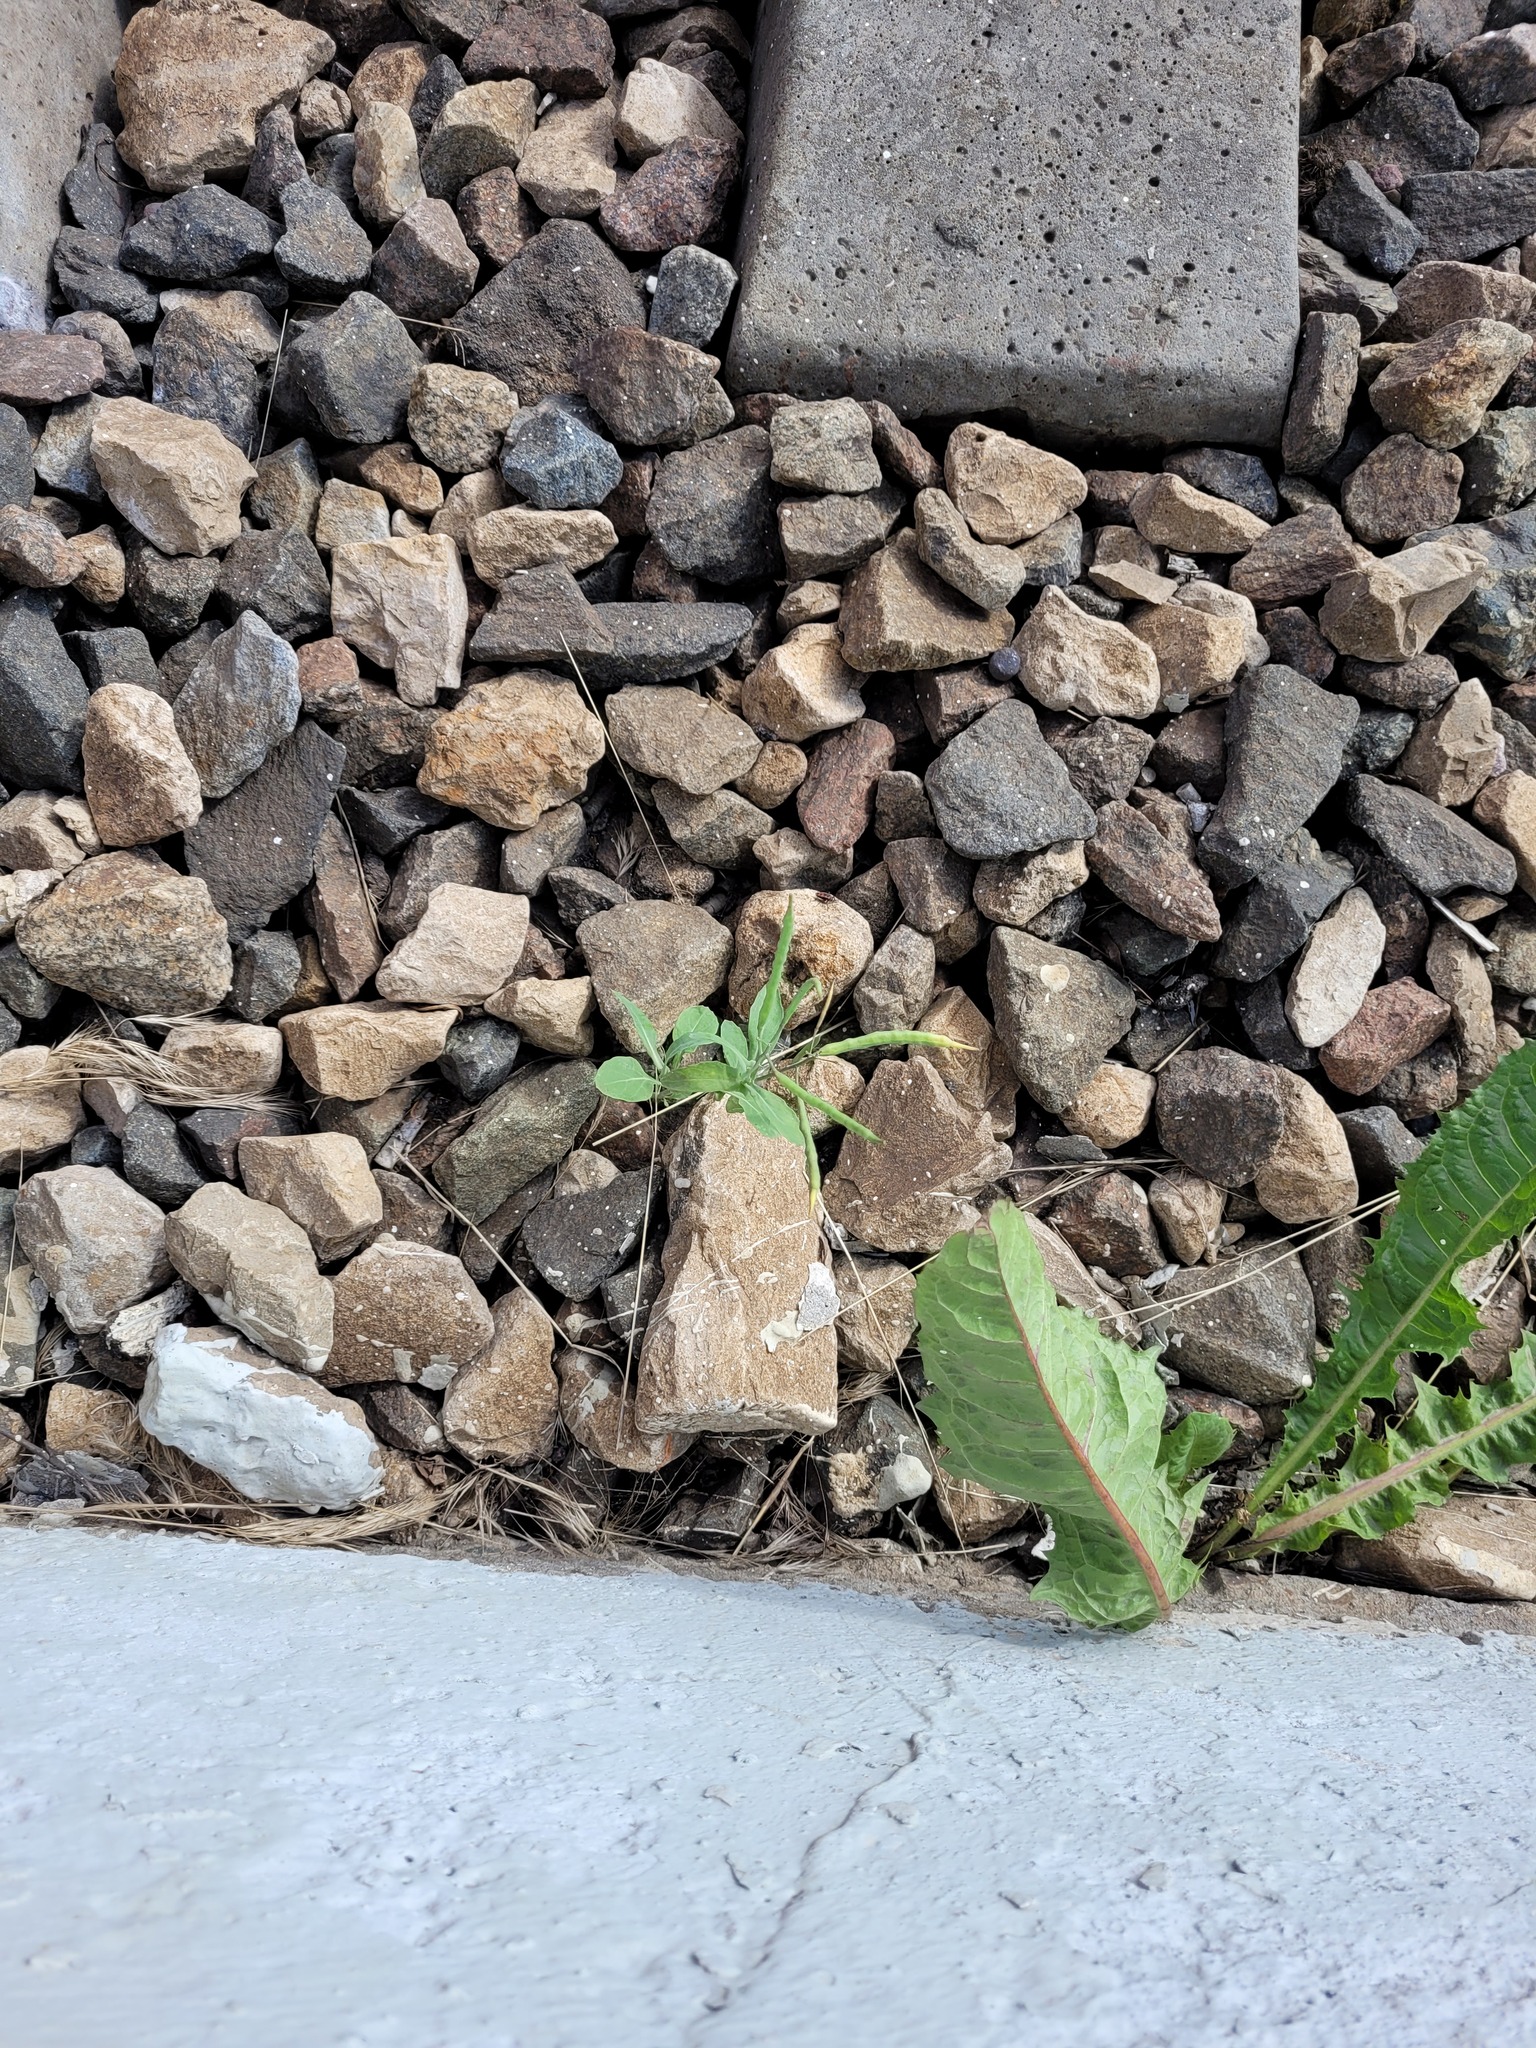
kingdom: Plantae
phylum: Tracheophyta
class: Magnoliopsida
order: Brassicales
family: Brassicaceae
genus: Brassica
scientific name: Brassica napus
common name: Rape
